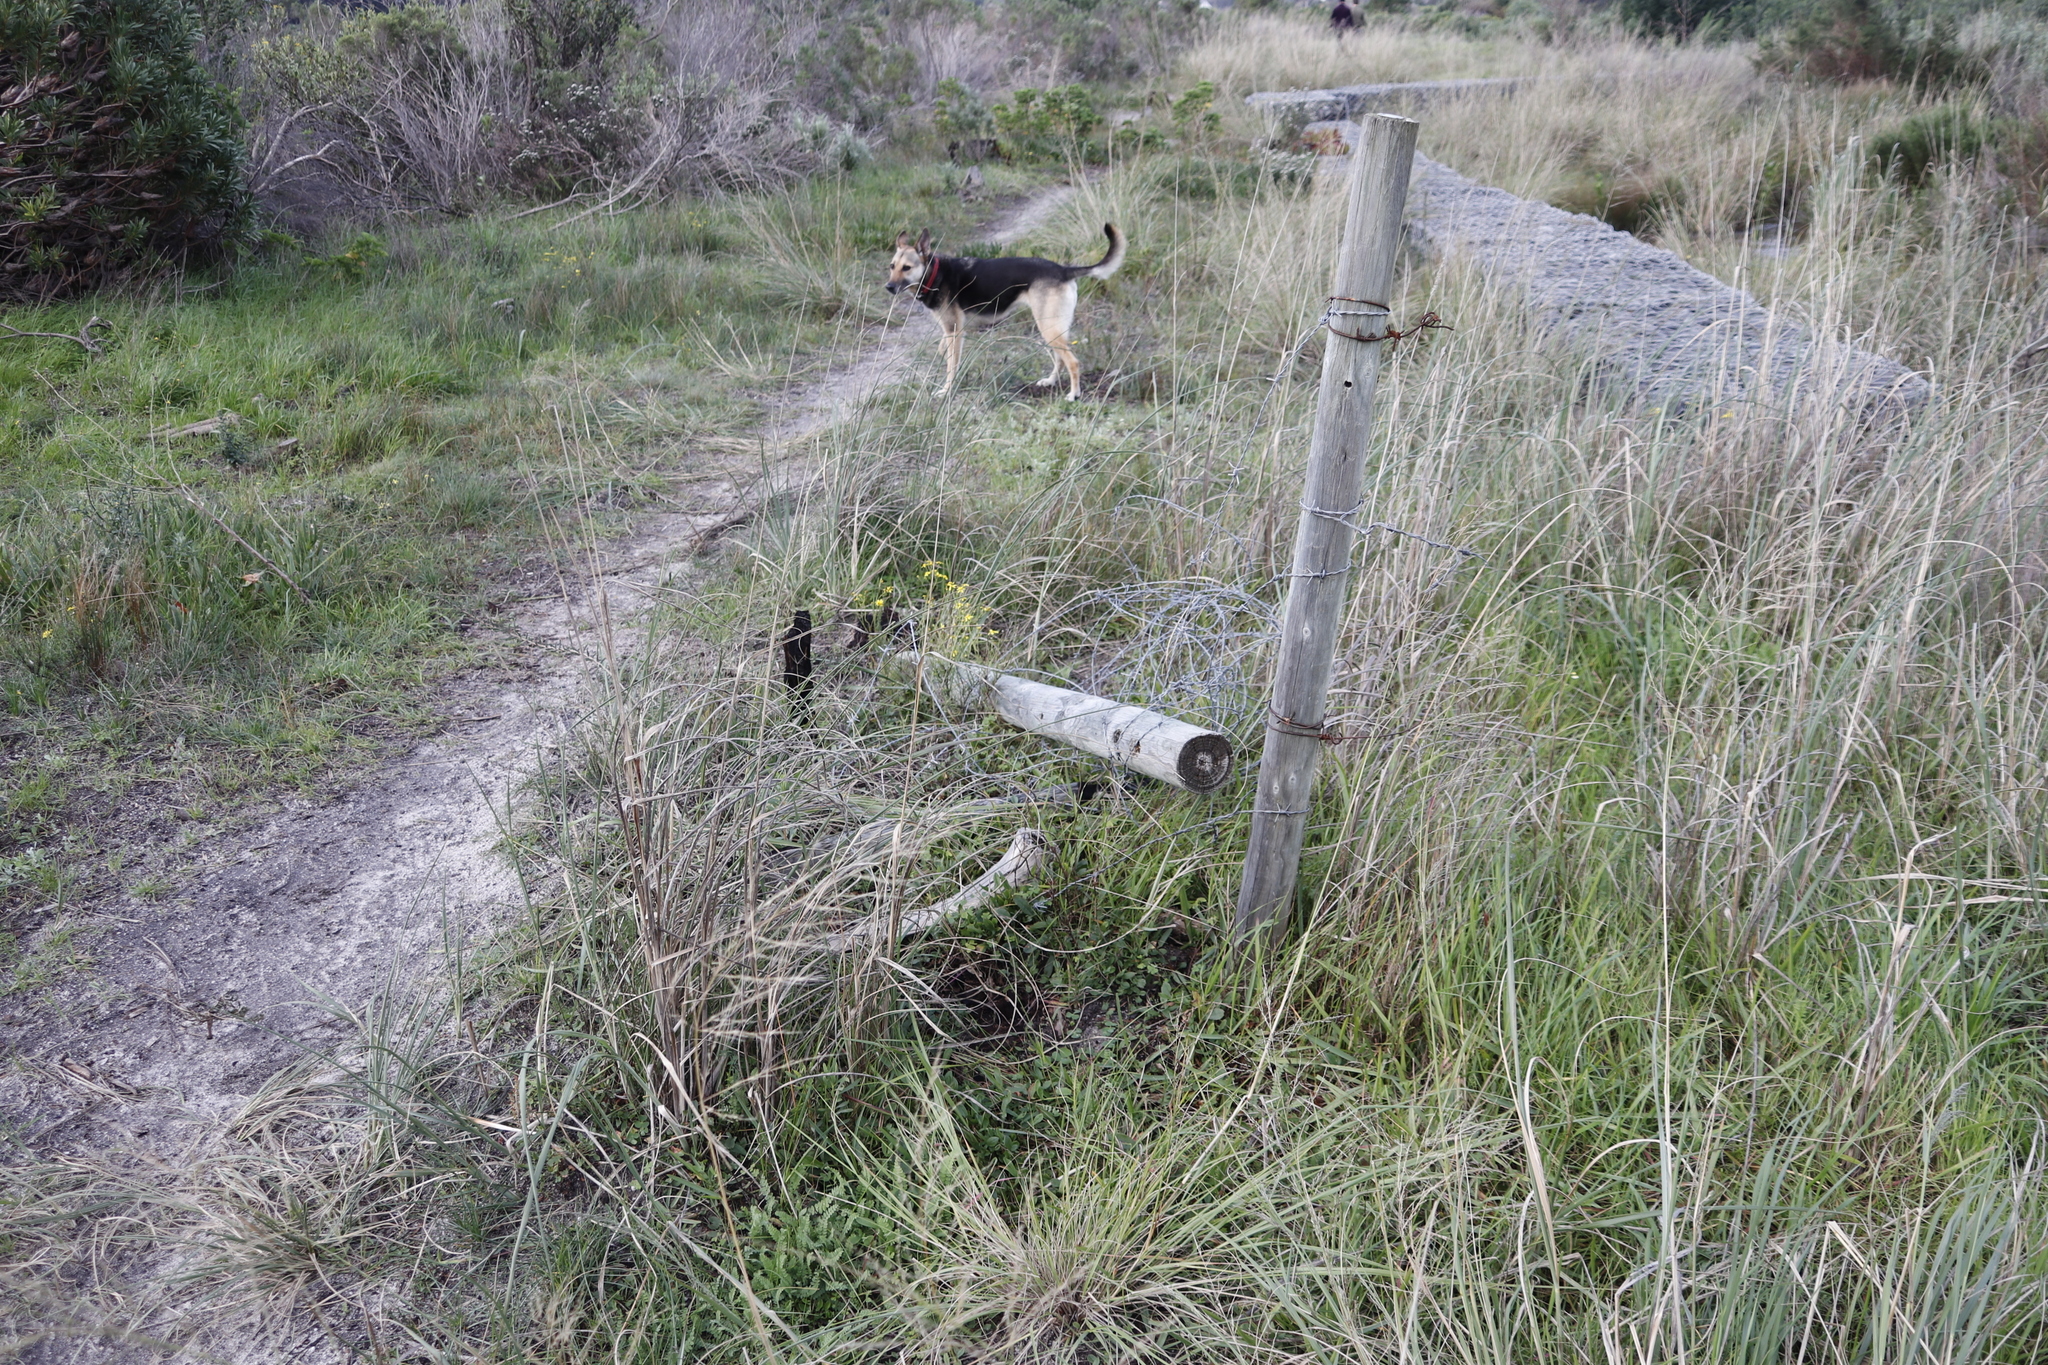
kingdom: Plantae
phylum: Tracheophyta
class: Magnoliopsida
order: Asterales
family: Asteraceae
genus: Senecio
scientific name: Senecio burchellii
